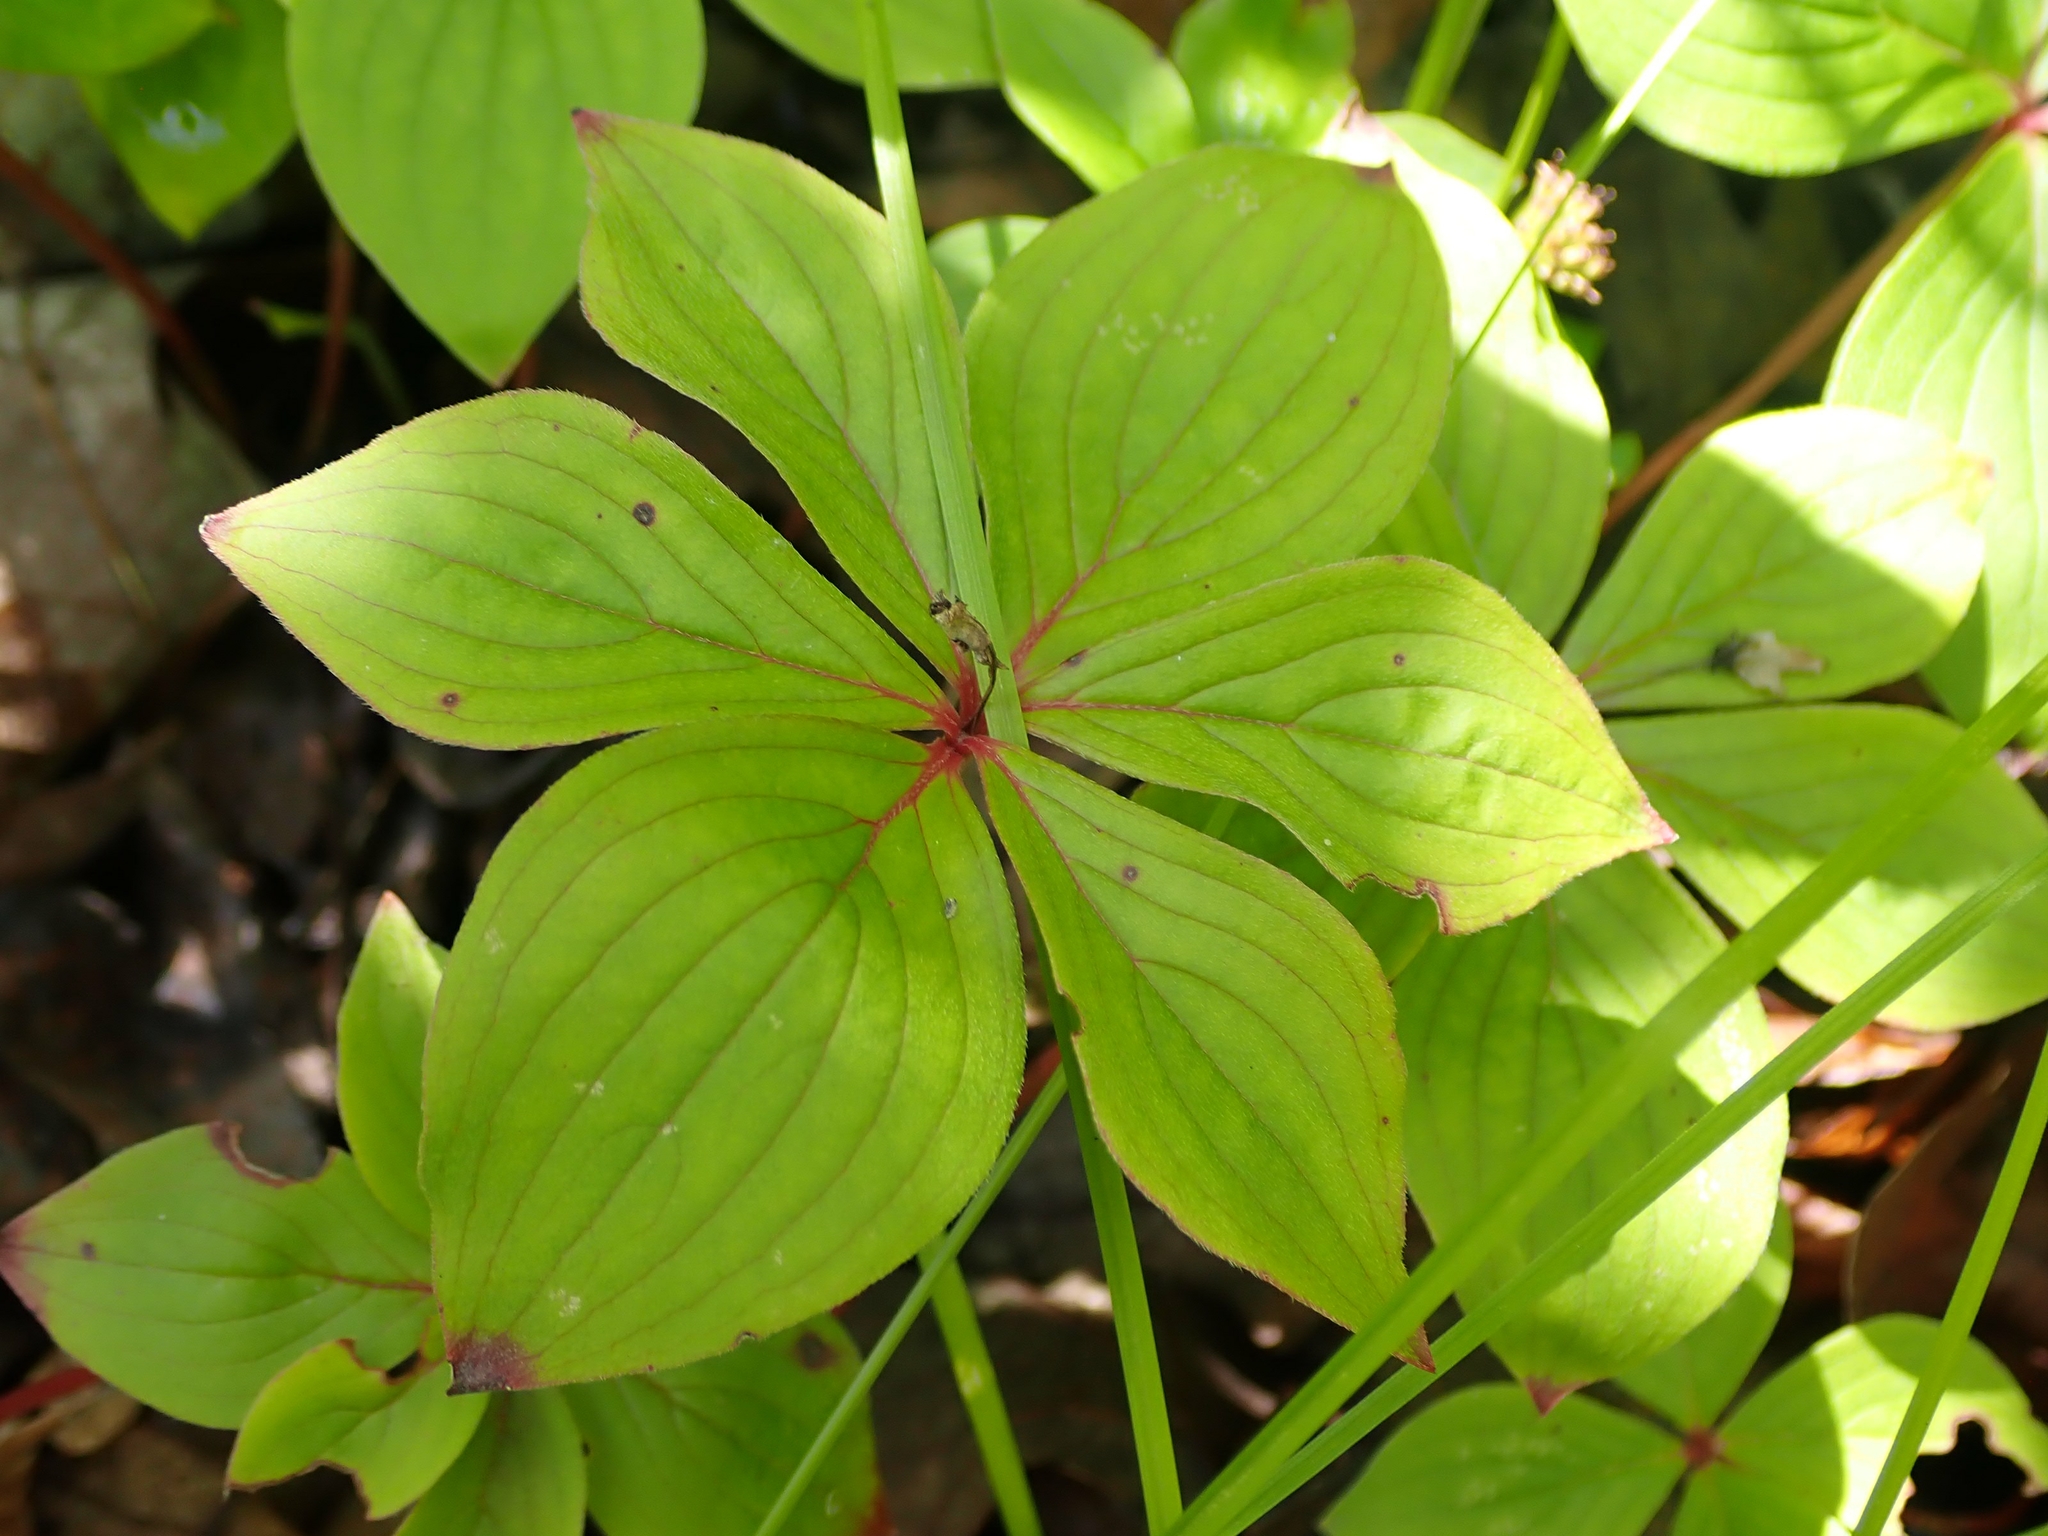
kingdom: Plantae
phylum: Tracheophyta
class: Magnoliopsida
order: Cornales
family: Cornaceae
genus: Cornus
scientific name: Cornus canadensis
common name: Creeping dogwood
